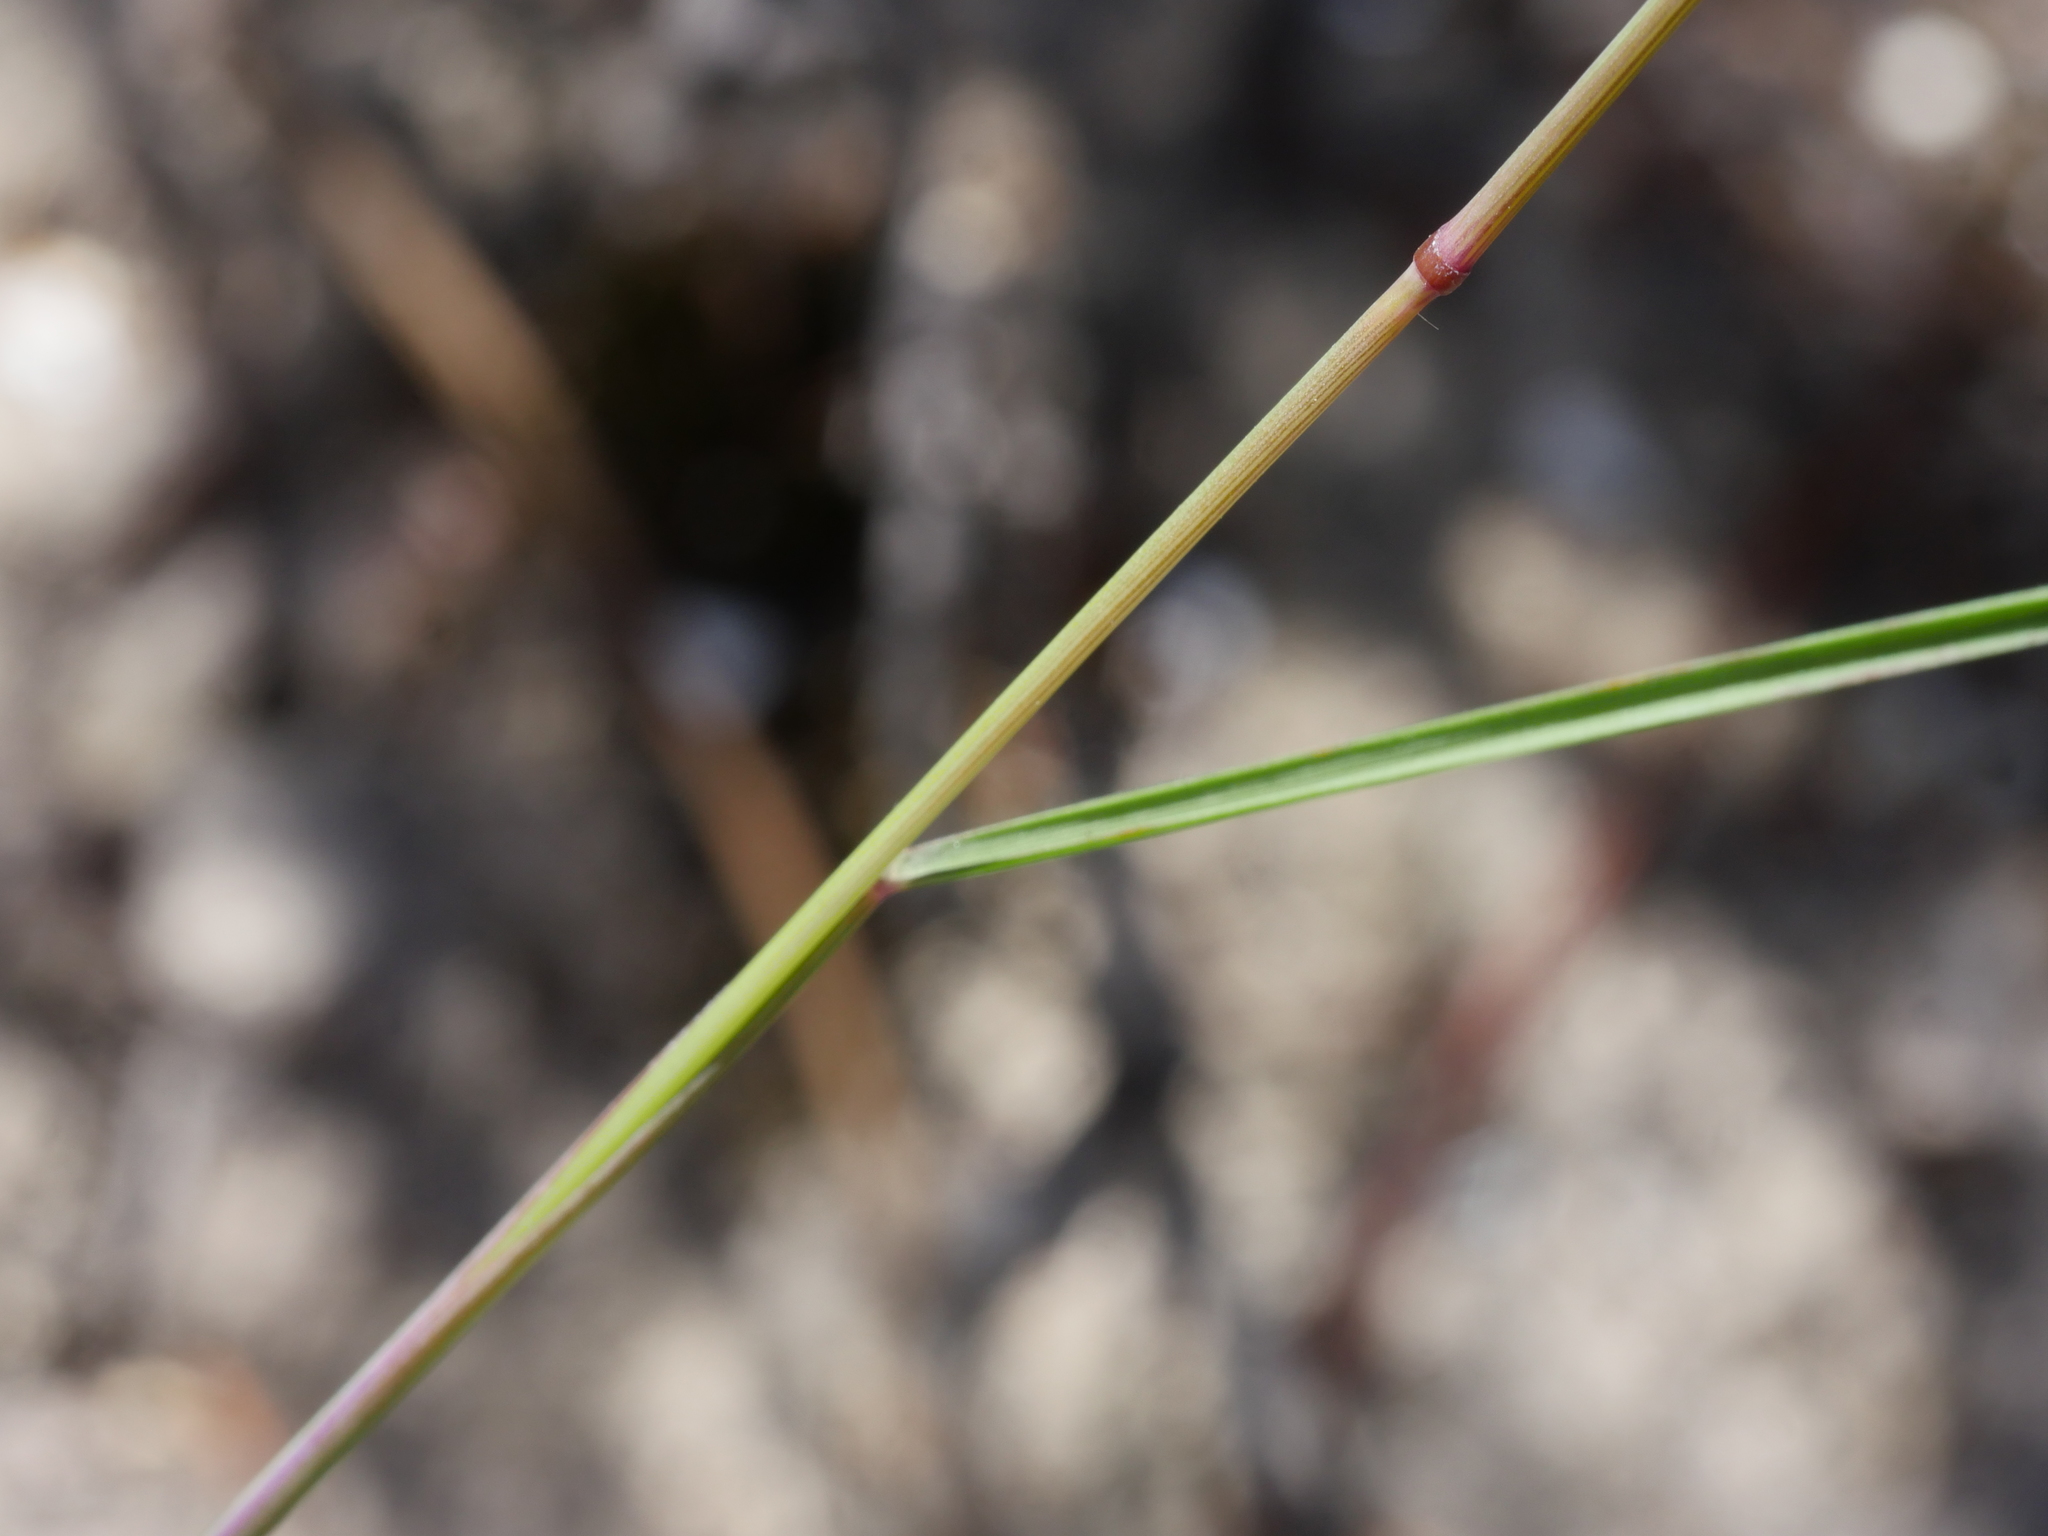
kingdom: Plantae
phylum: Tracheophyta
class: Liliopsida
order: Poales
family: Poaceae
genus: Rytidosperma
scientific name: Rytidosperma gracile
